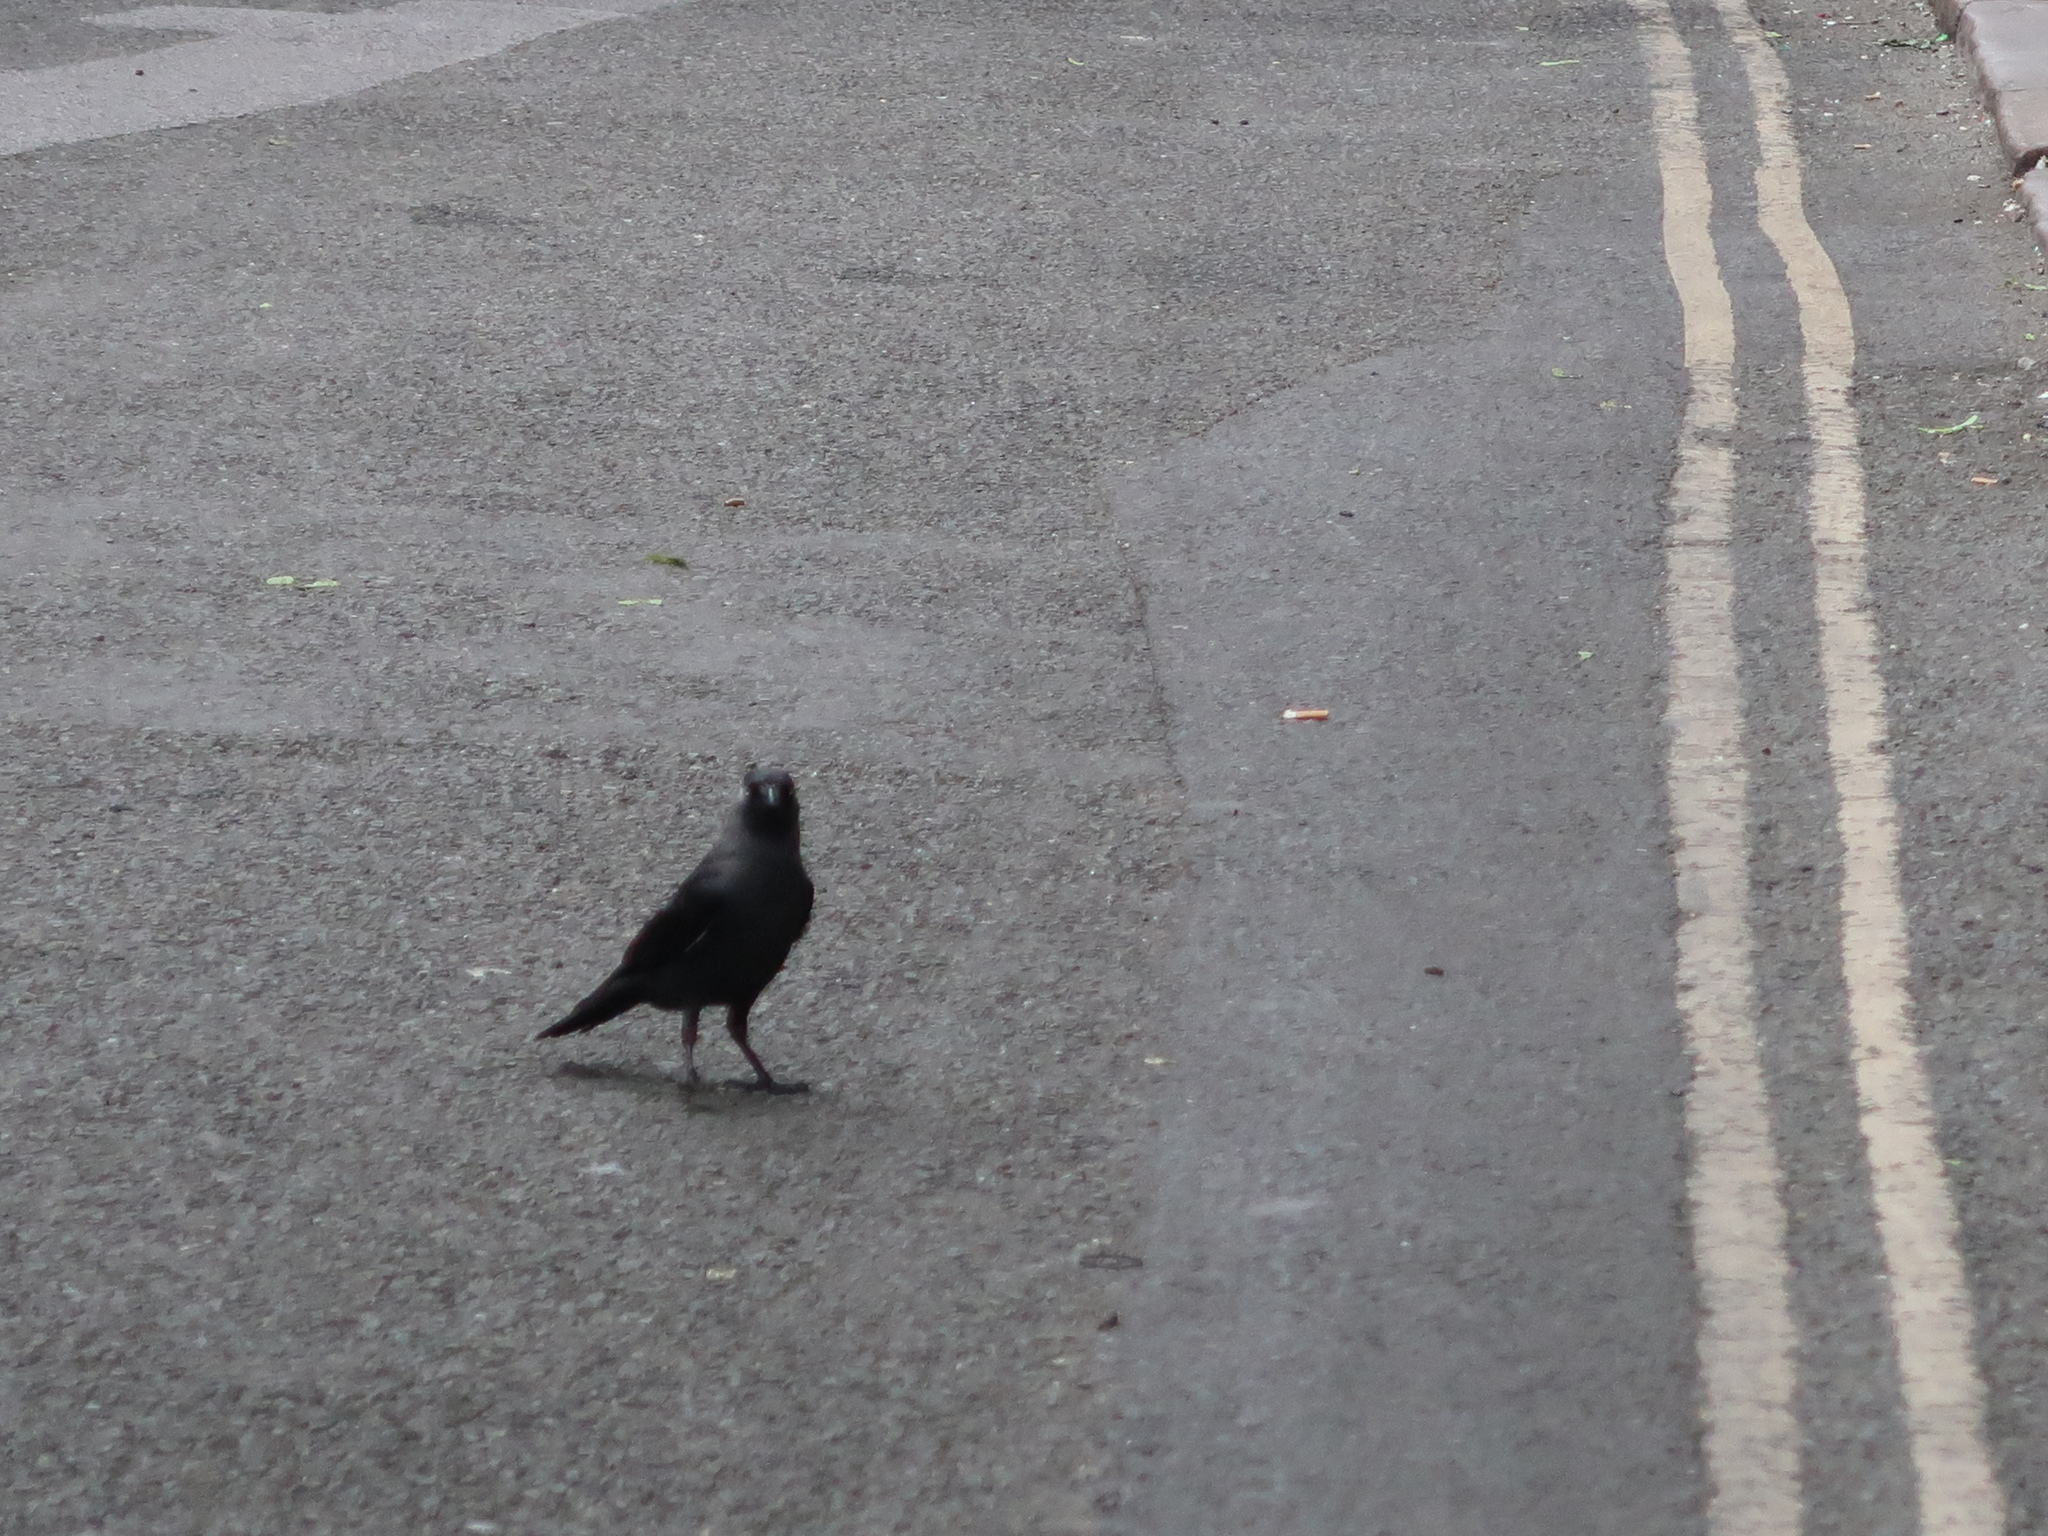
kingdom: Animalia
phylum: Chordata
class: Aves
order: Passeriformes
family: Corvidae
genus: Coloeus
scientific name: Coloeus monedula
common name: Western jackdaw
